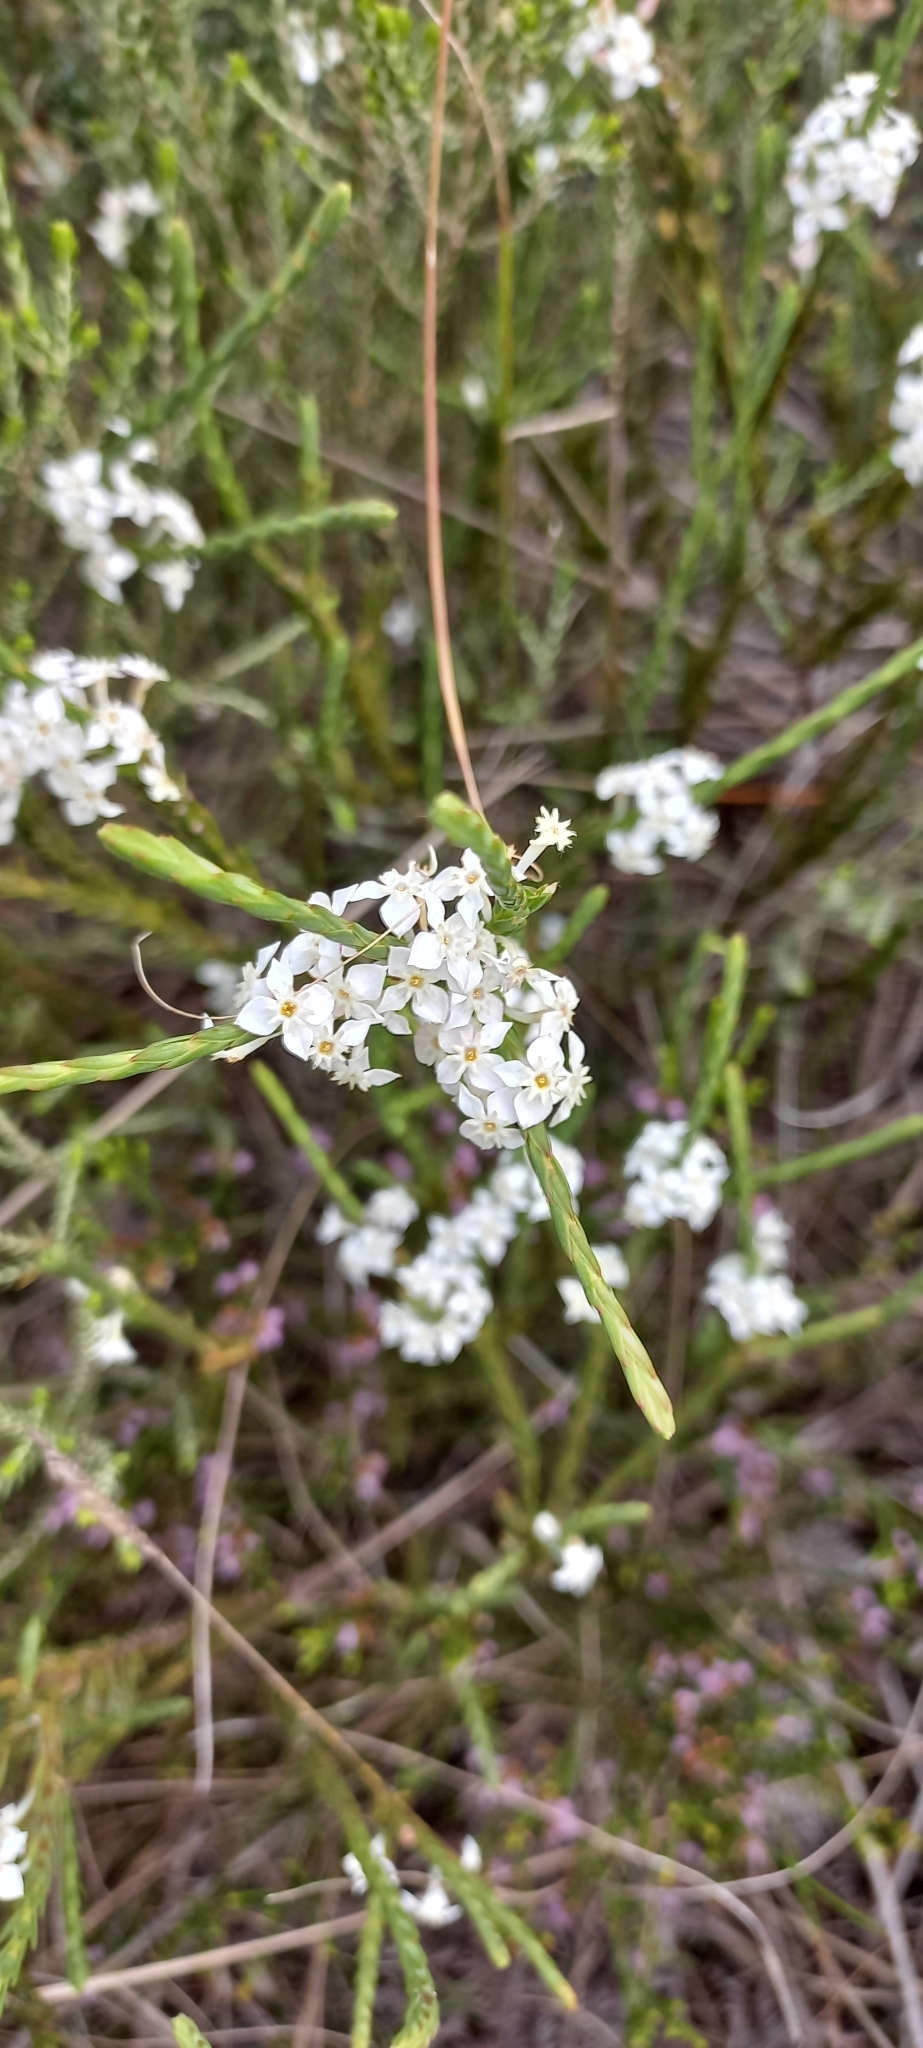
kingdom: Plantae
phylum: Tracheophyta
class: Magnoliopsida
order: Malvales
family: Thymelaeaceae
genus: Struthiola
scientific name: Struthiola dodecandra
